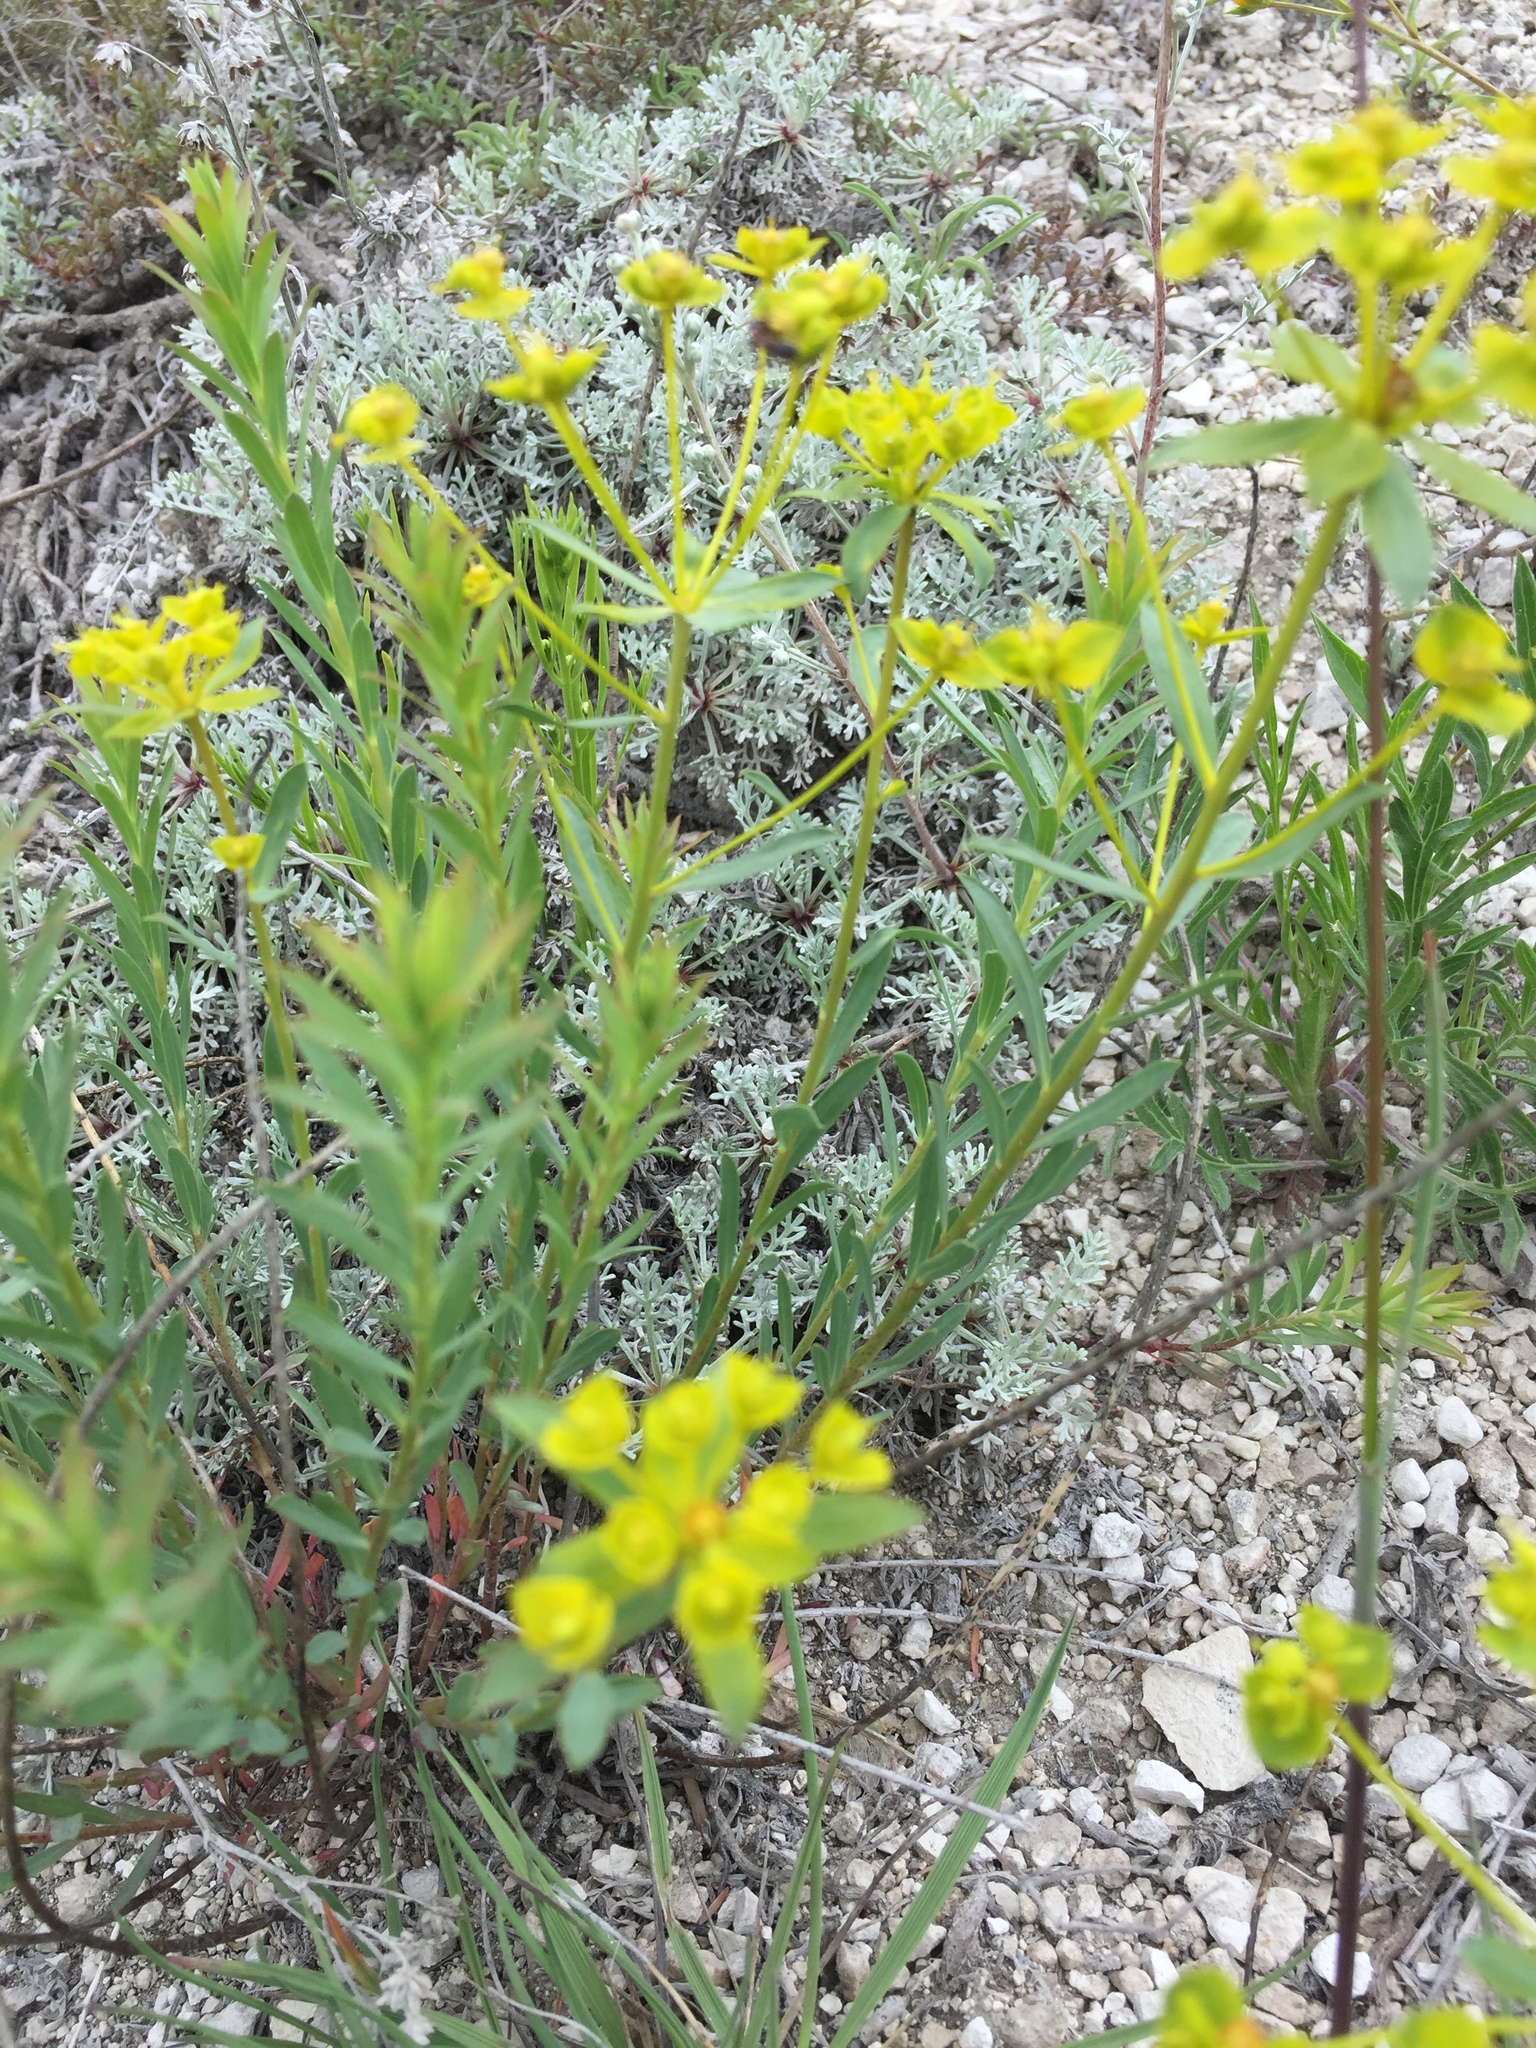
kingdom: Plantae
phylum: Tracheophyta
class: Magnoliopsida
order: Malpighiales
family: Euphorbiaceae
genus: Euphorbia
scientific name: Euphorbia seguieriana
